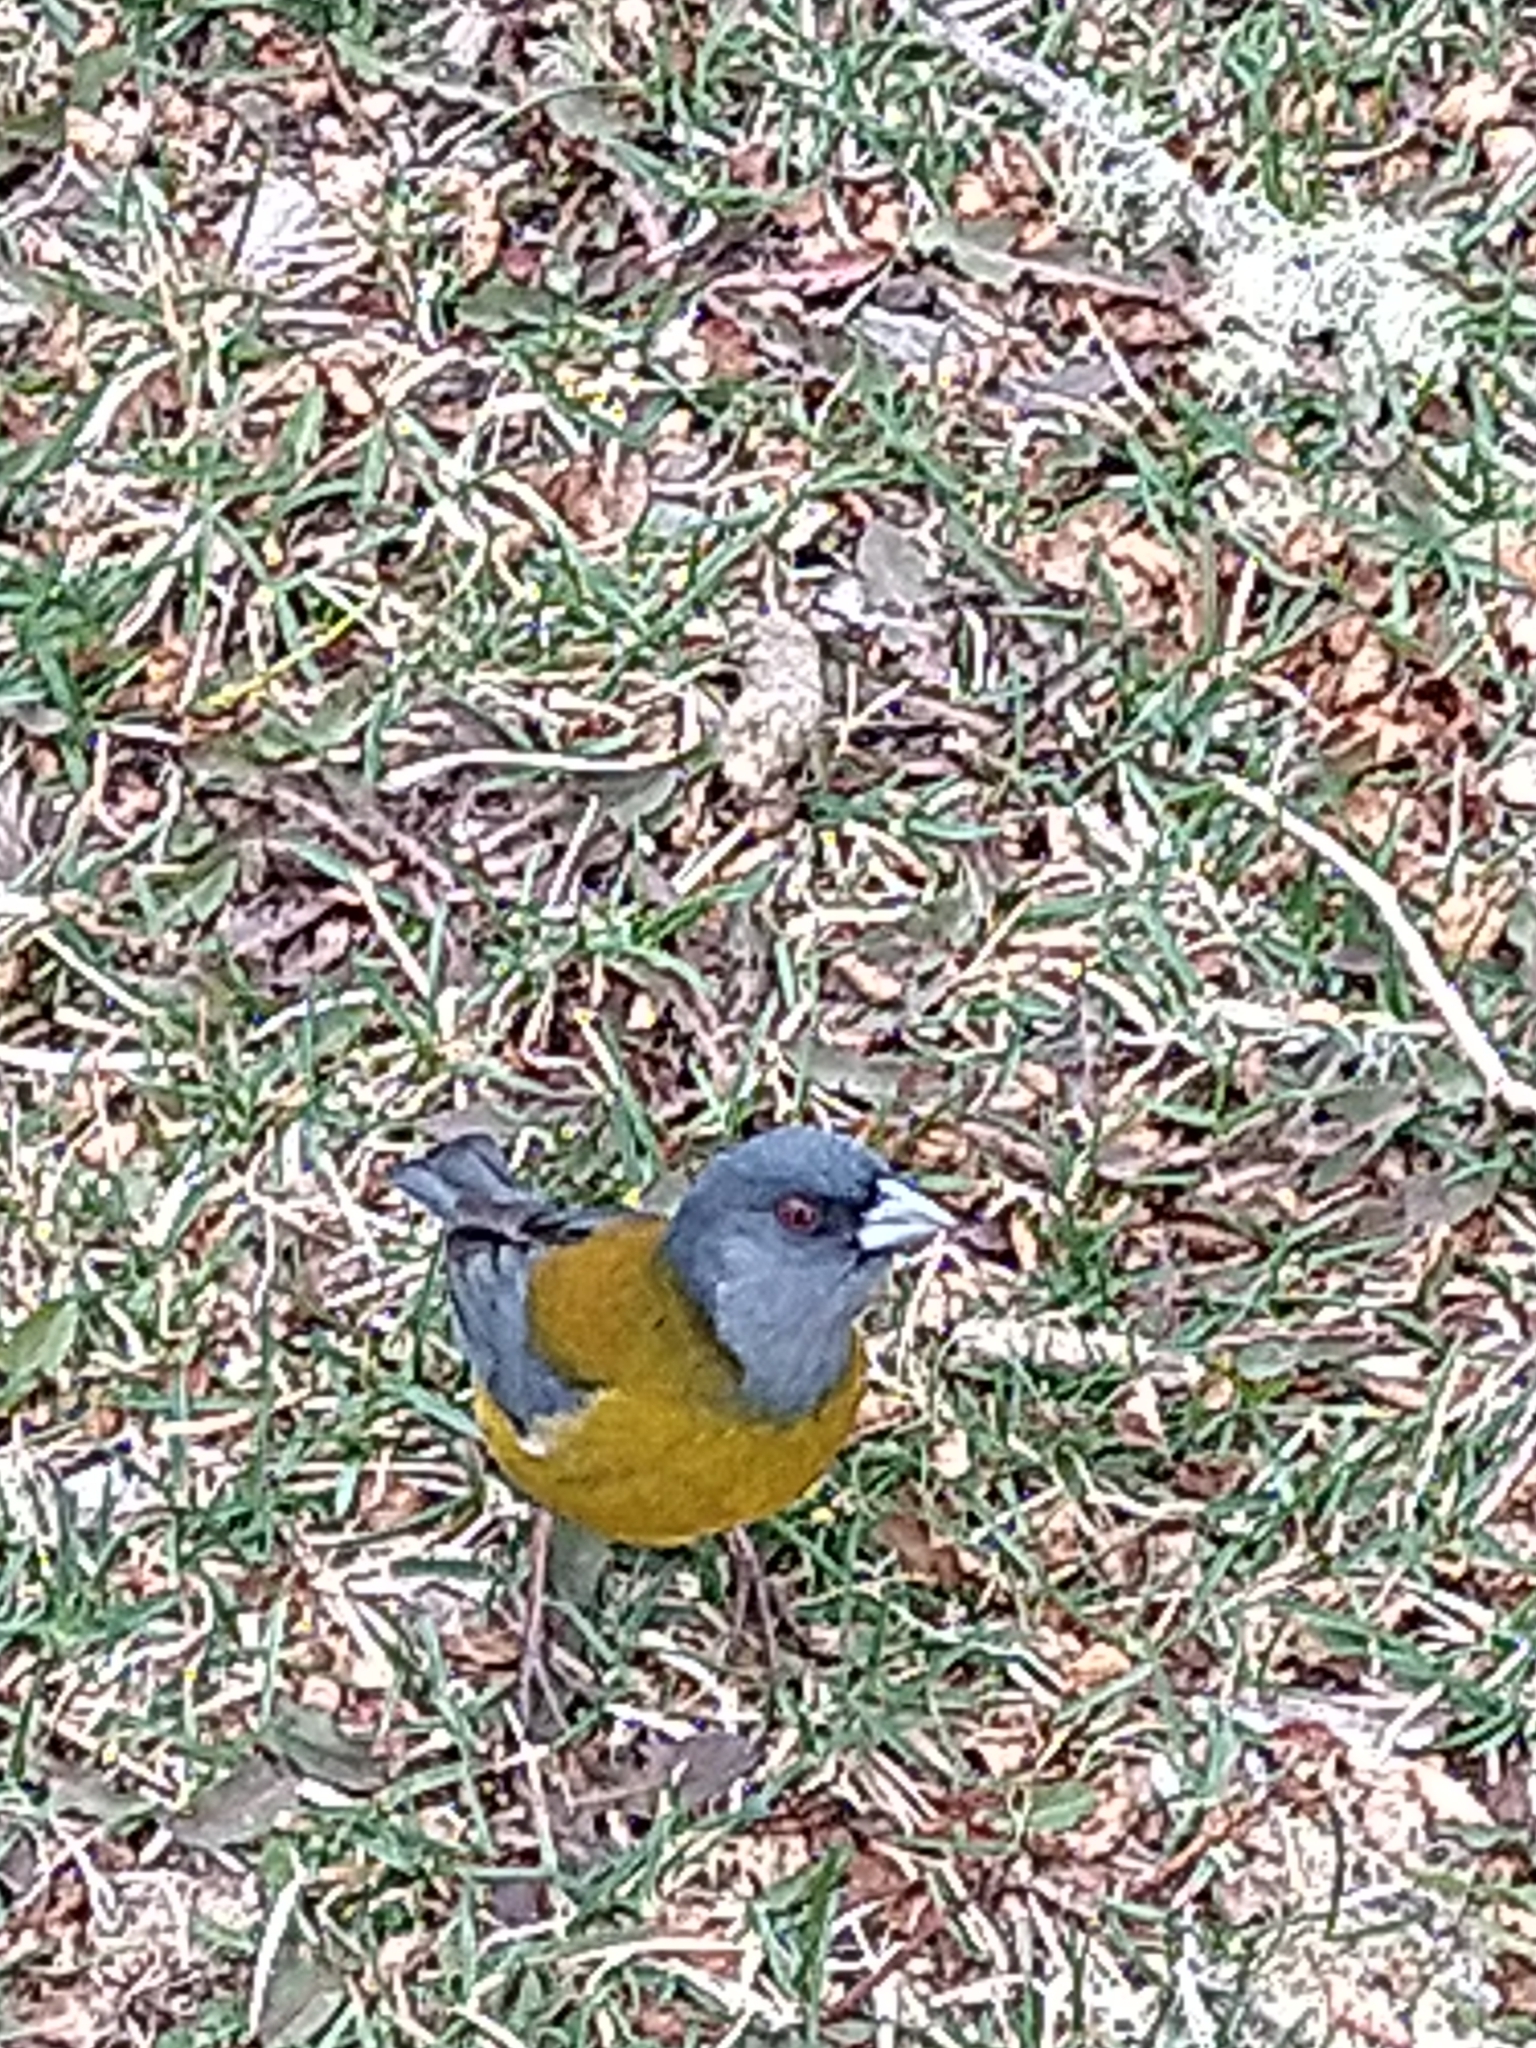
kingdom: Animalia
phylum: Chordata
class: Aves
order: Passeriformes
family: Thraupidae
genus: Phrygilus
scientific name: Phrygilus patagonicus
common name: Patagonian sierra finch
